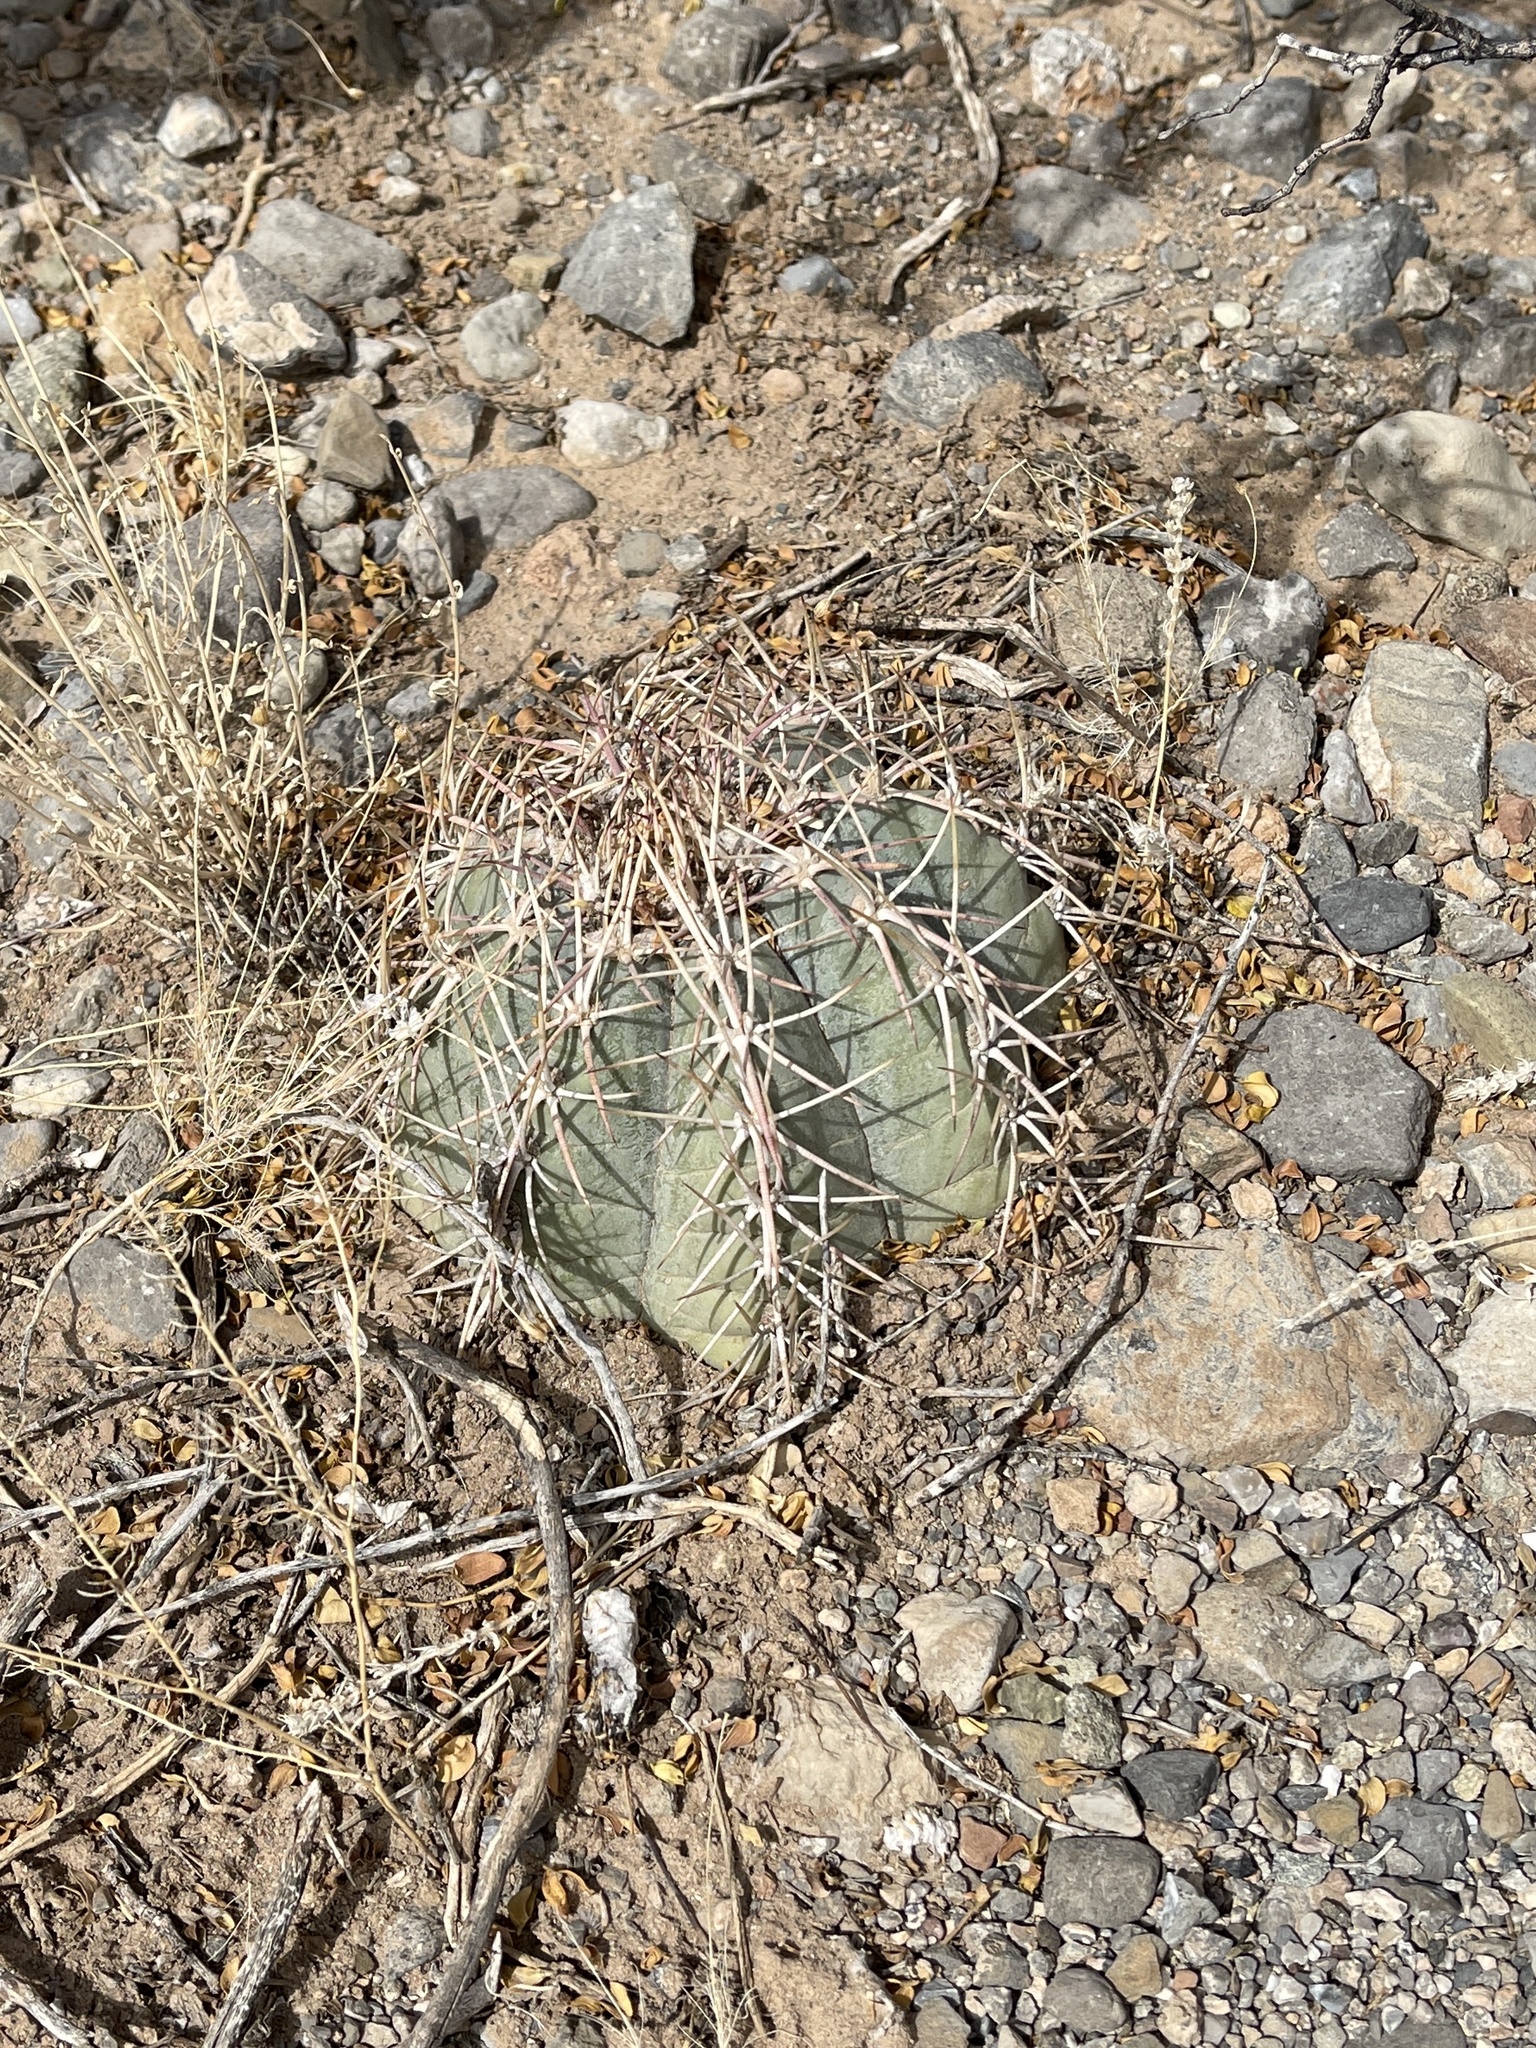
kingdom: Plantae
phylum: Tracheophyta
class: Magnoliopsida
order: Caryophyllales
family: Cactaceae
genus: Echinocactus
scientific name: Echinocactus horizonthalonius
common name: Devilshead
